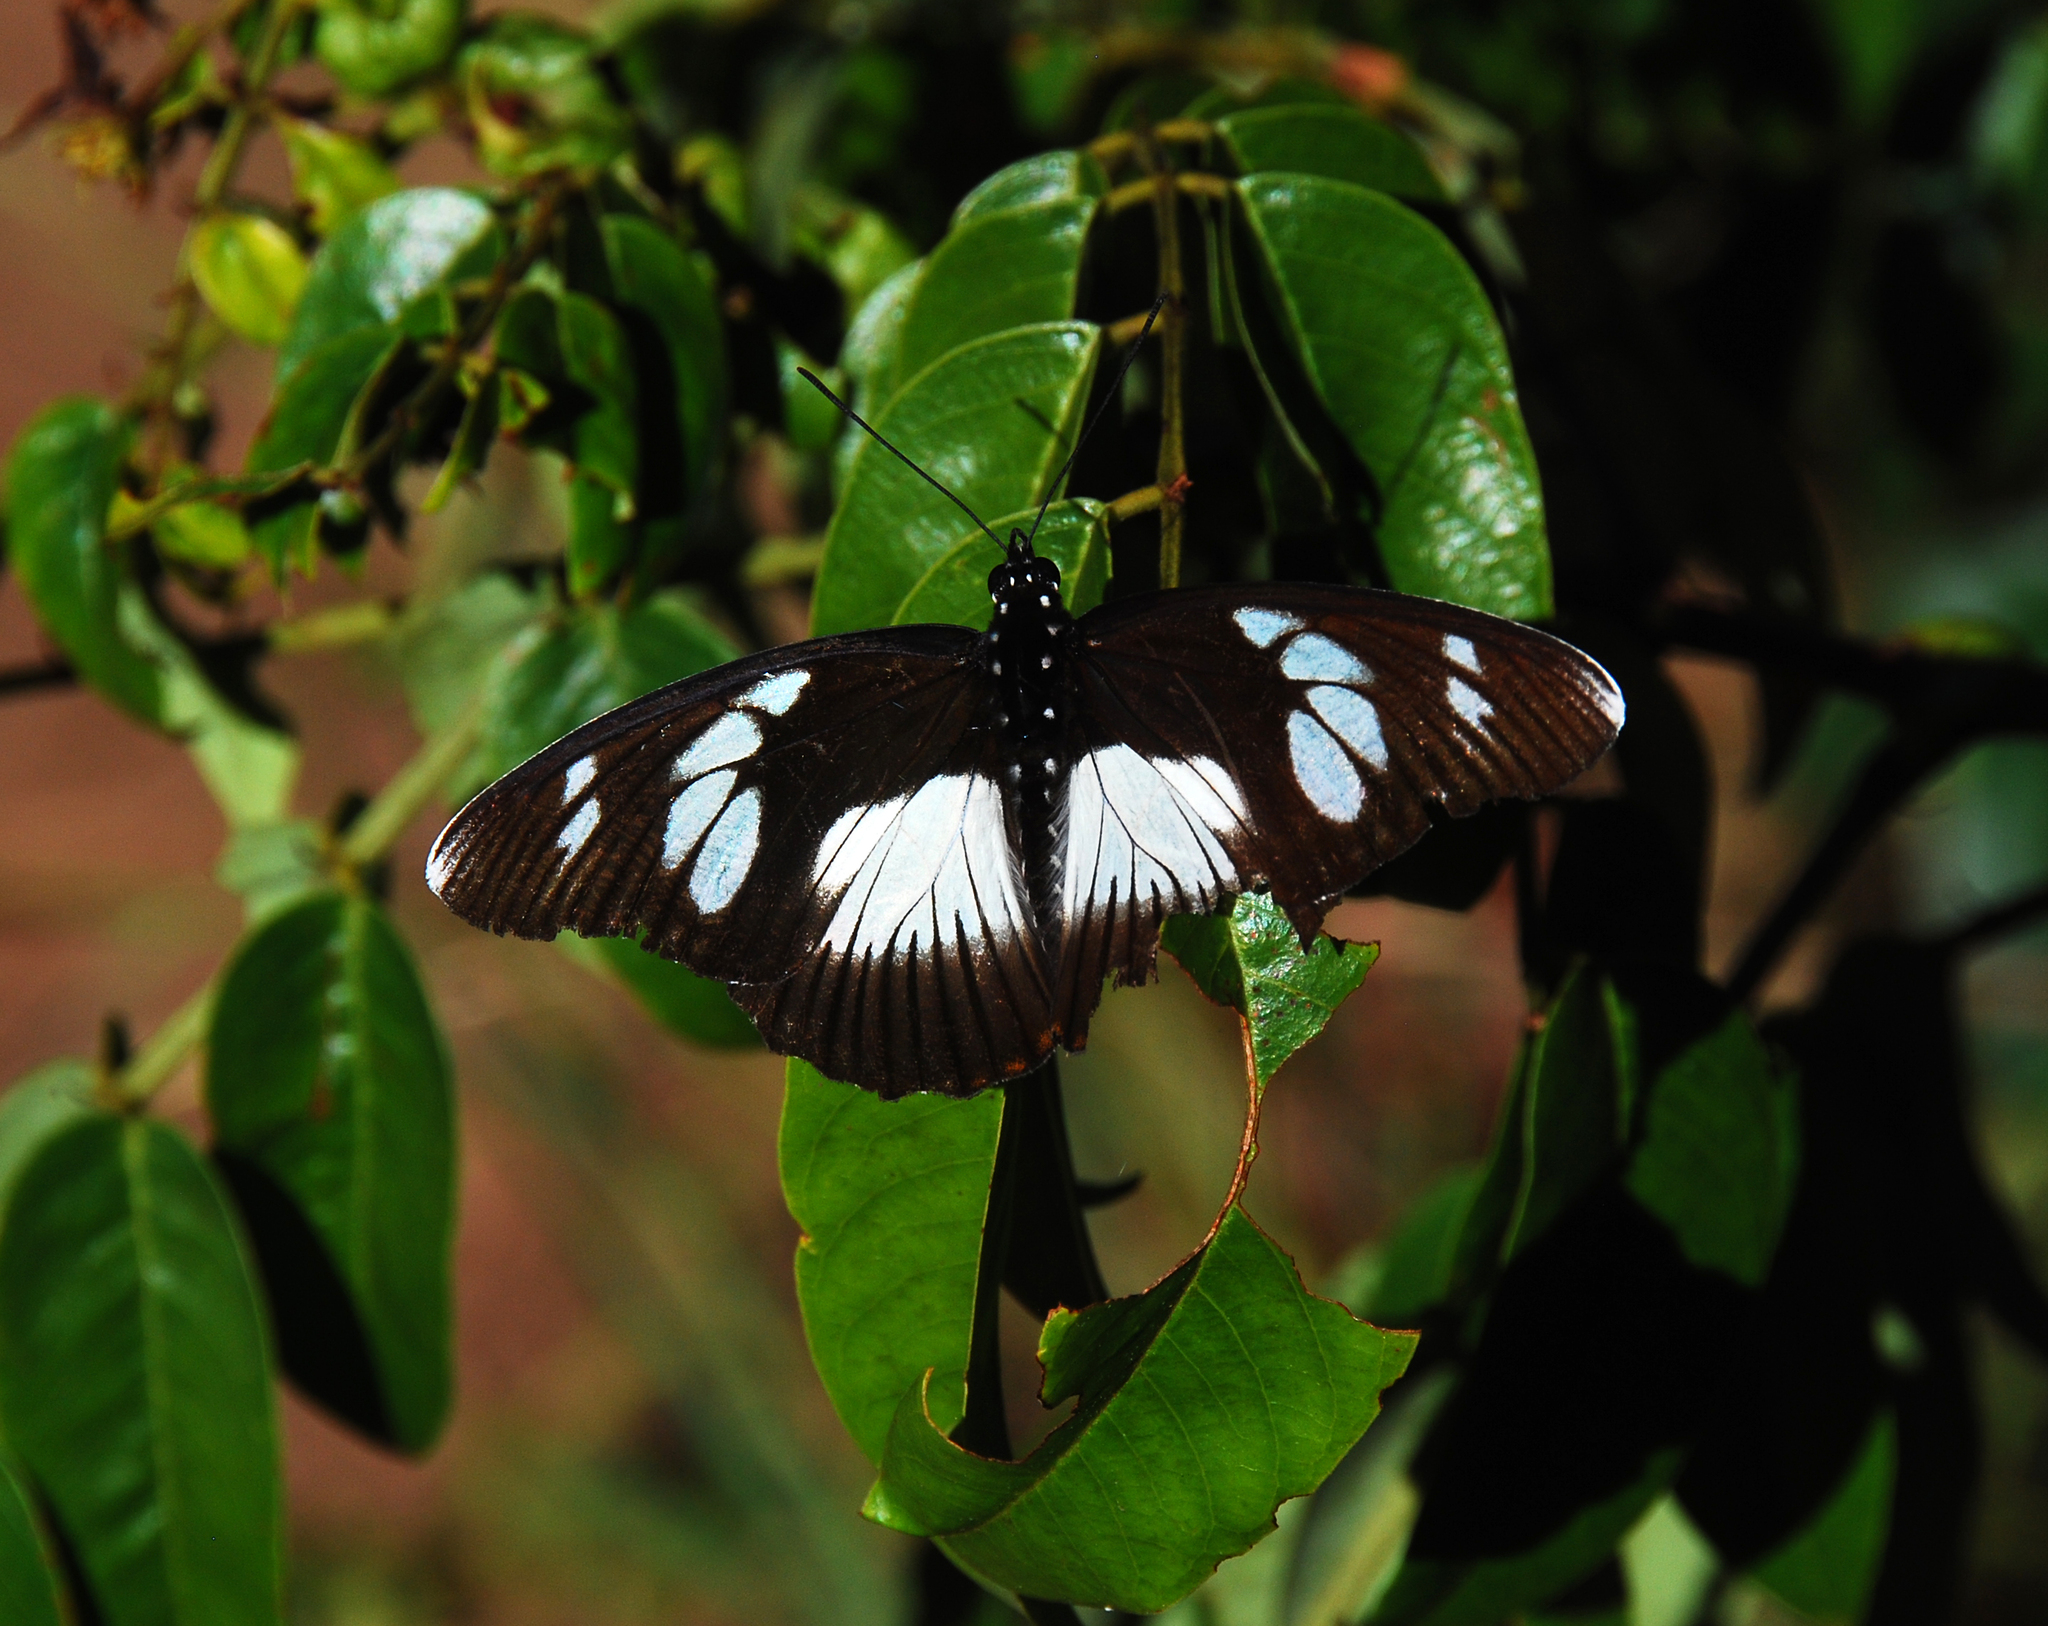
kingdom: Animalia
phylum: Arthropoda
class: Insecta
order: Lepidoptera
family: Nymphalidae
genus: Chloropoea
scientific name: Chloropoea lucretia
